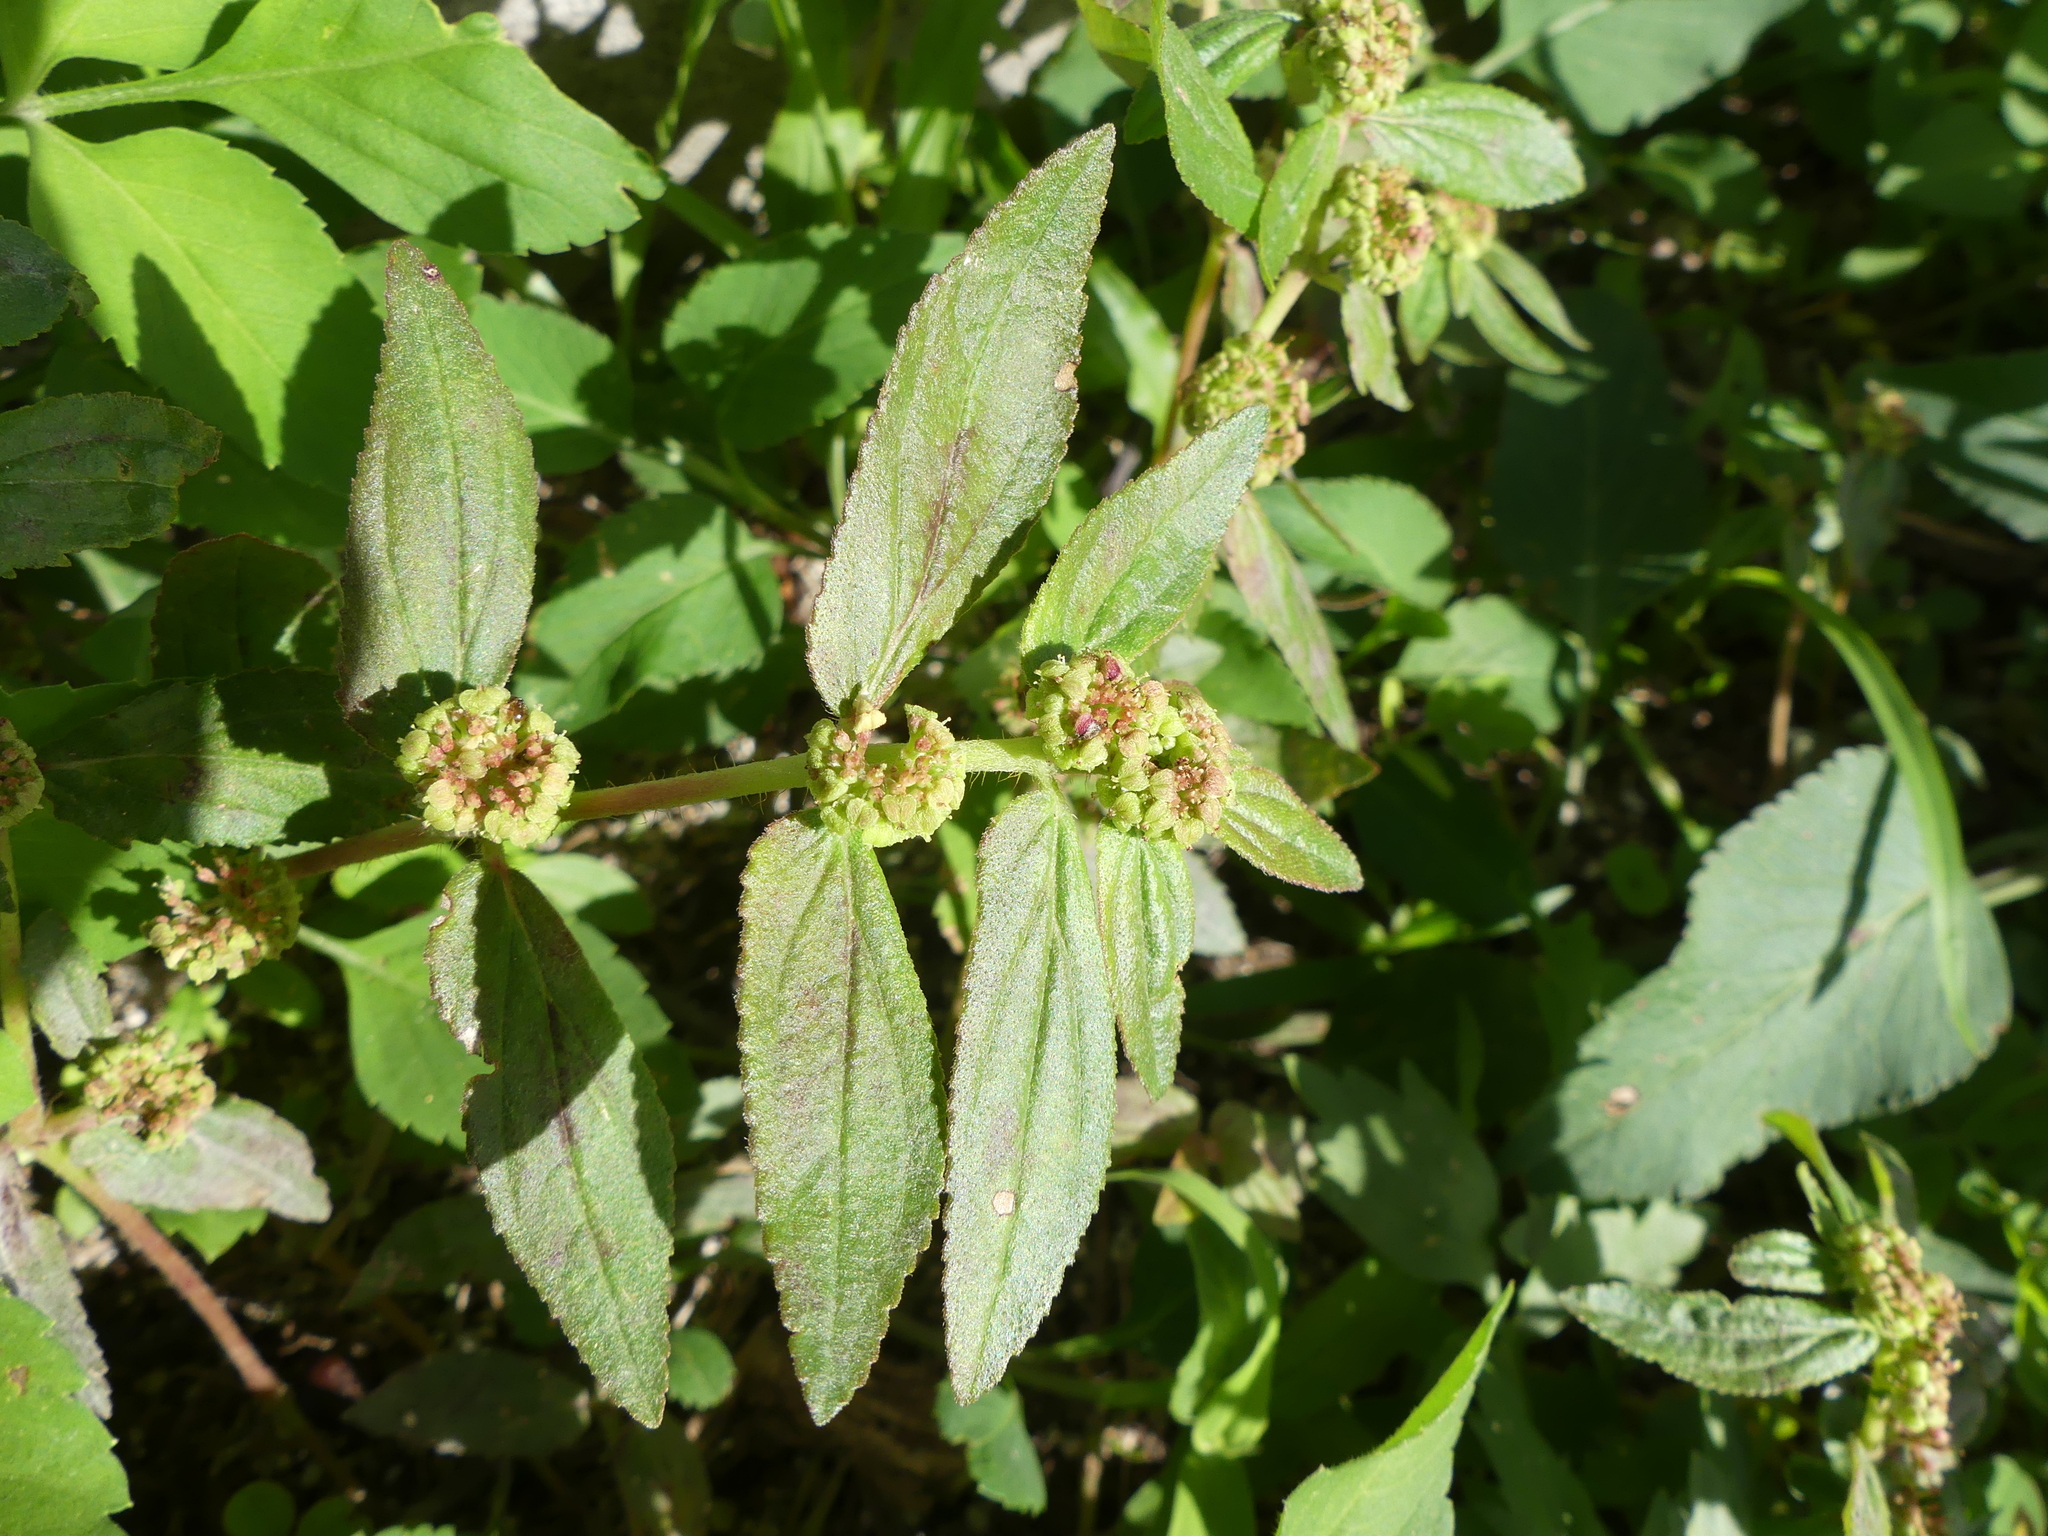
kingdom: Plantae
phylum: Tracheophyta
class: Magnoliopsida
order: Malpighiales
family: Euphorbiaceae
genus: Euphorbia
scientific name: Euphorbia hirta
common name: Pillpod sandmat
